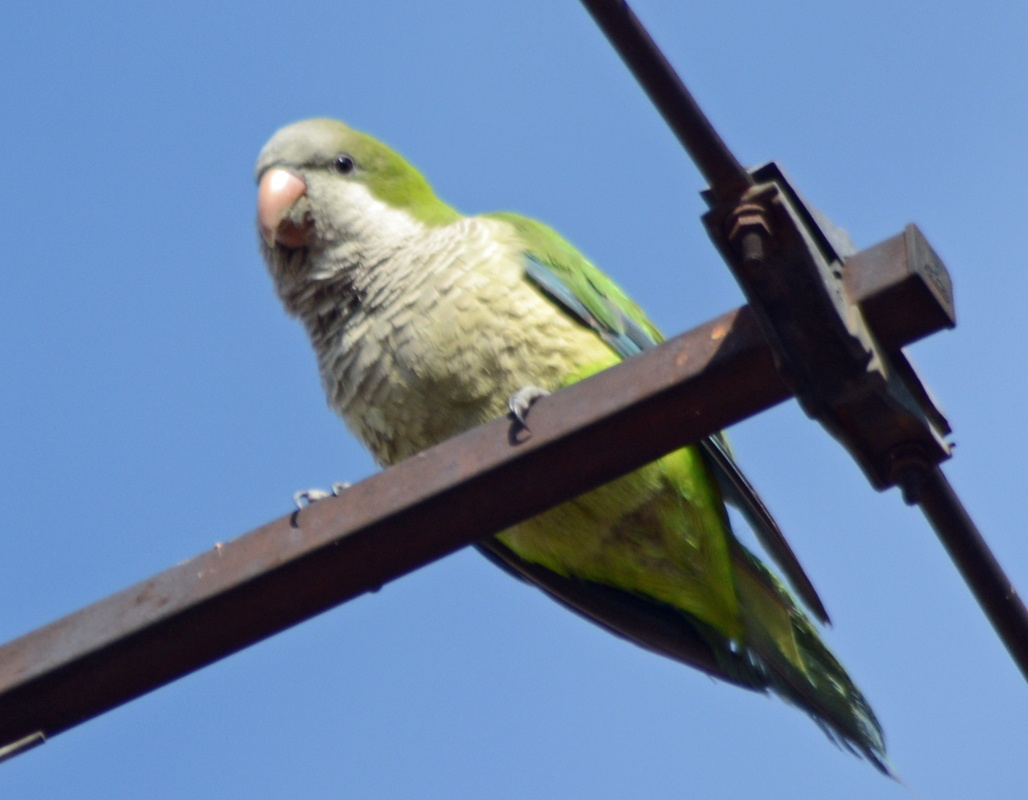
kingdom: Animalia
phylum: Chordata
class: Aves
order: Psittaciformes
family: Psittacidae
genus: Myiopsitta
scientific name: Myiopsitta monachus
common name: Monk parakeet
